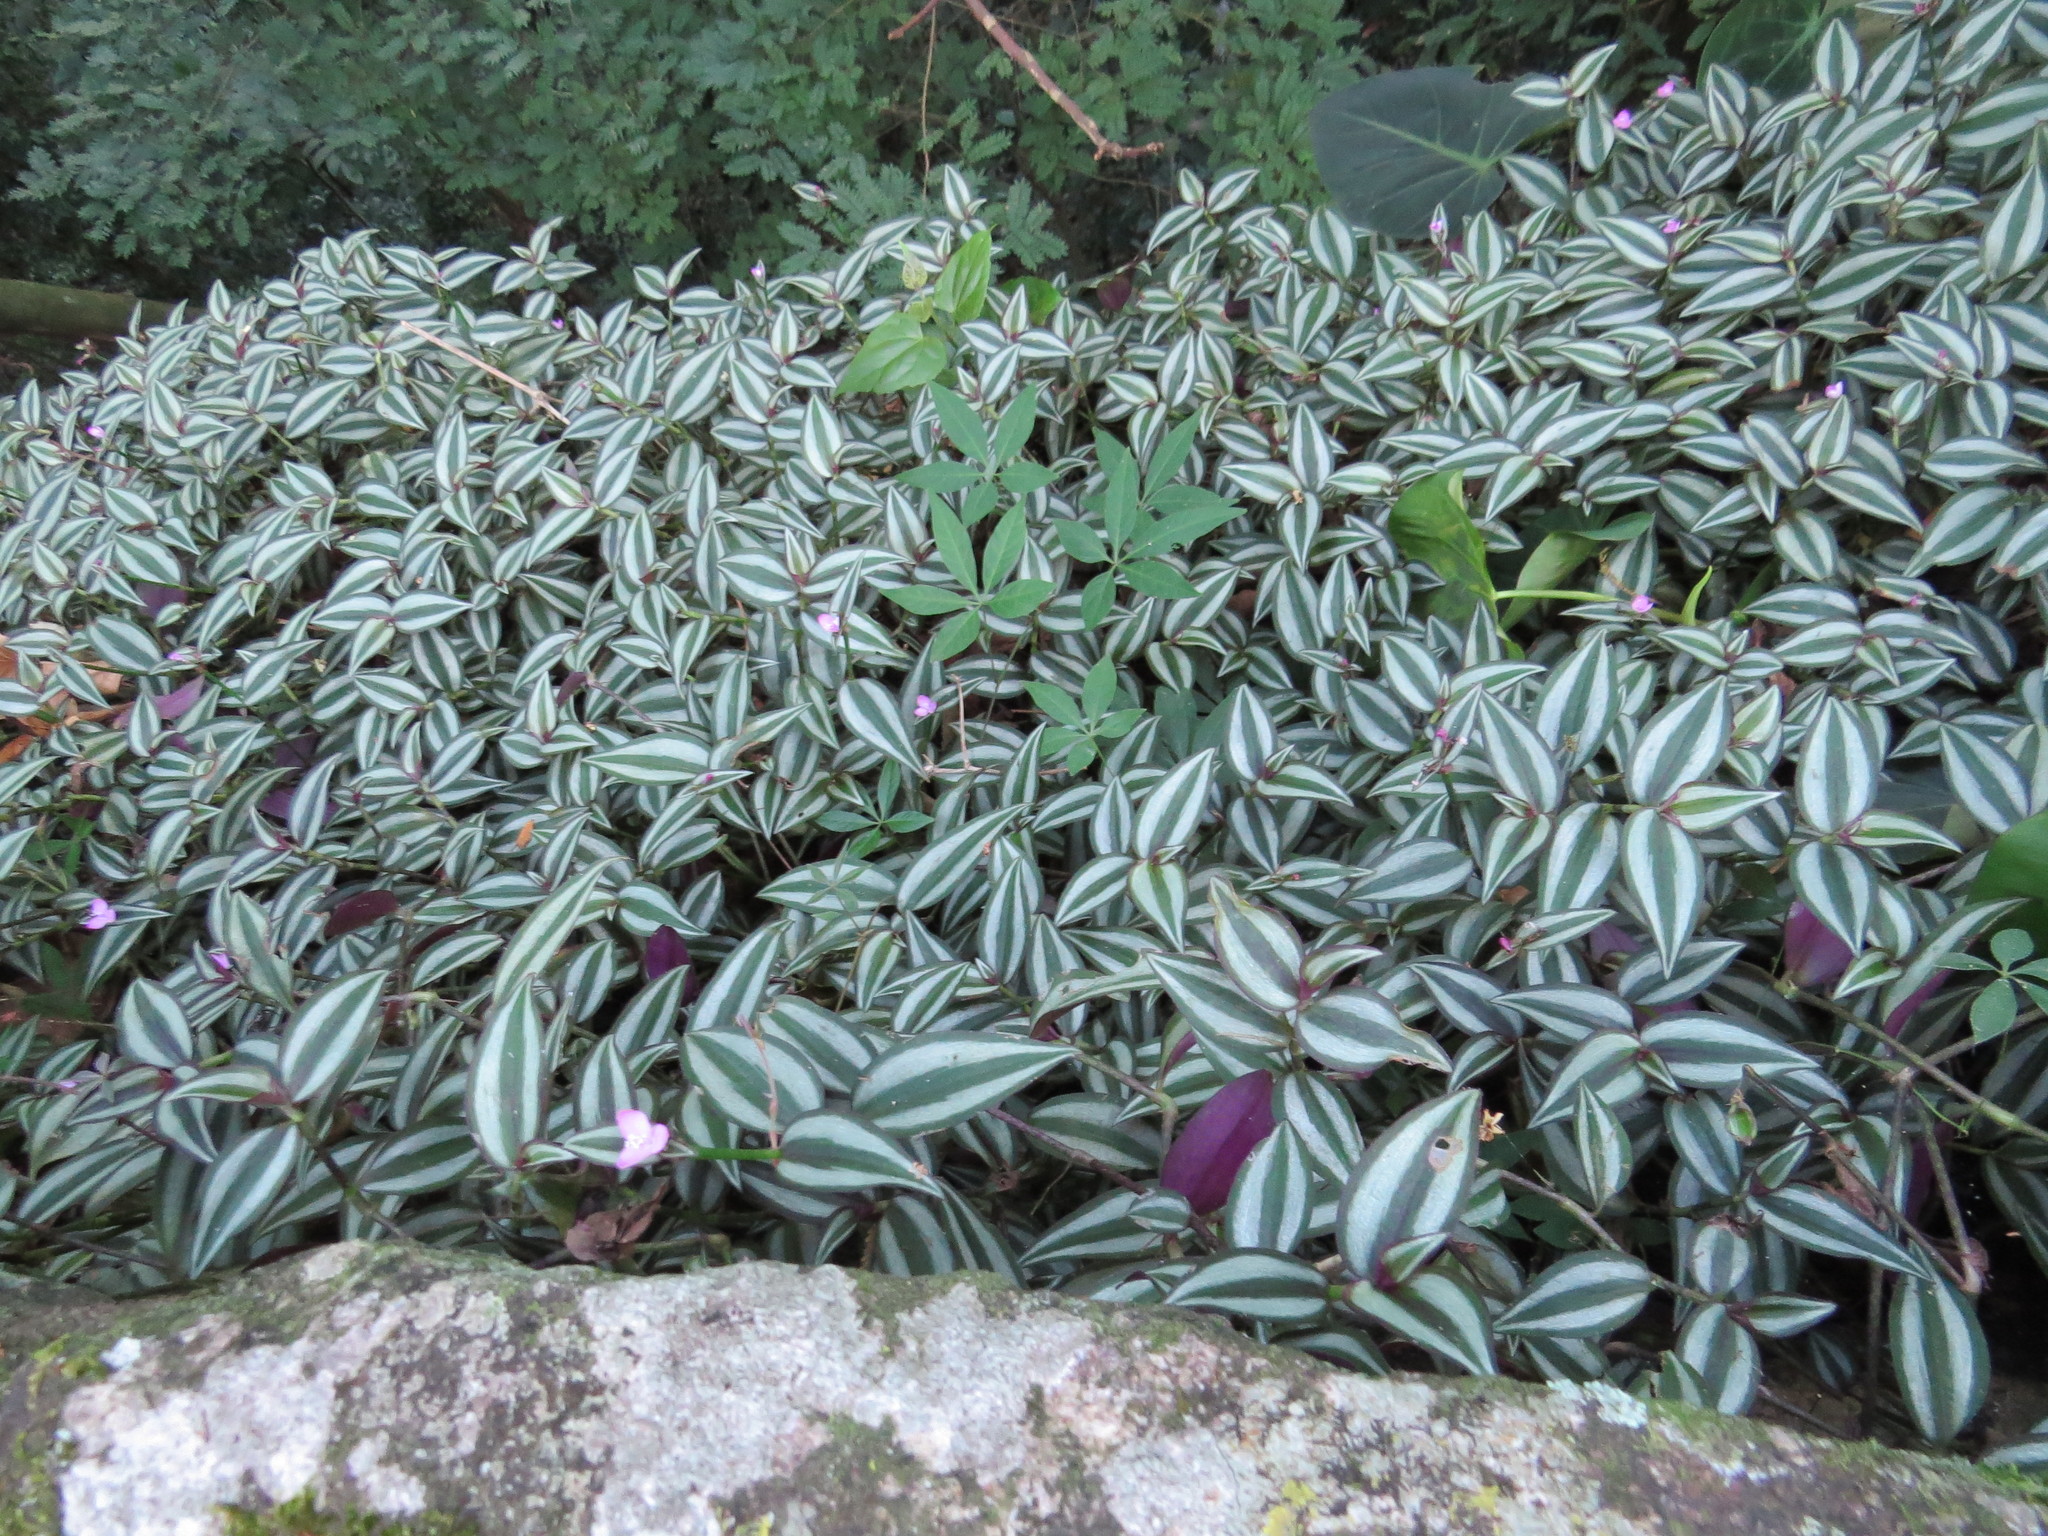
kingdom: Plantae
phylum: Tracheophyta
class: Liliopsida
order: Commelinales
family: Commelinaceae
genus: Tradescantia
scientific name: Tradescantia zebrina
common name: Inchplant
